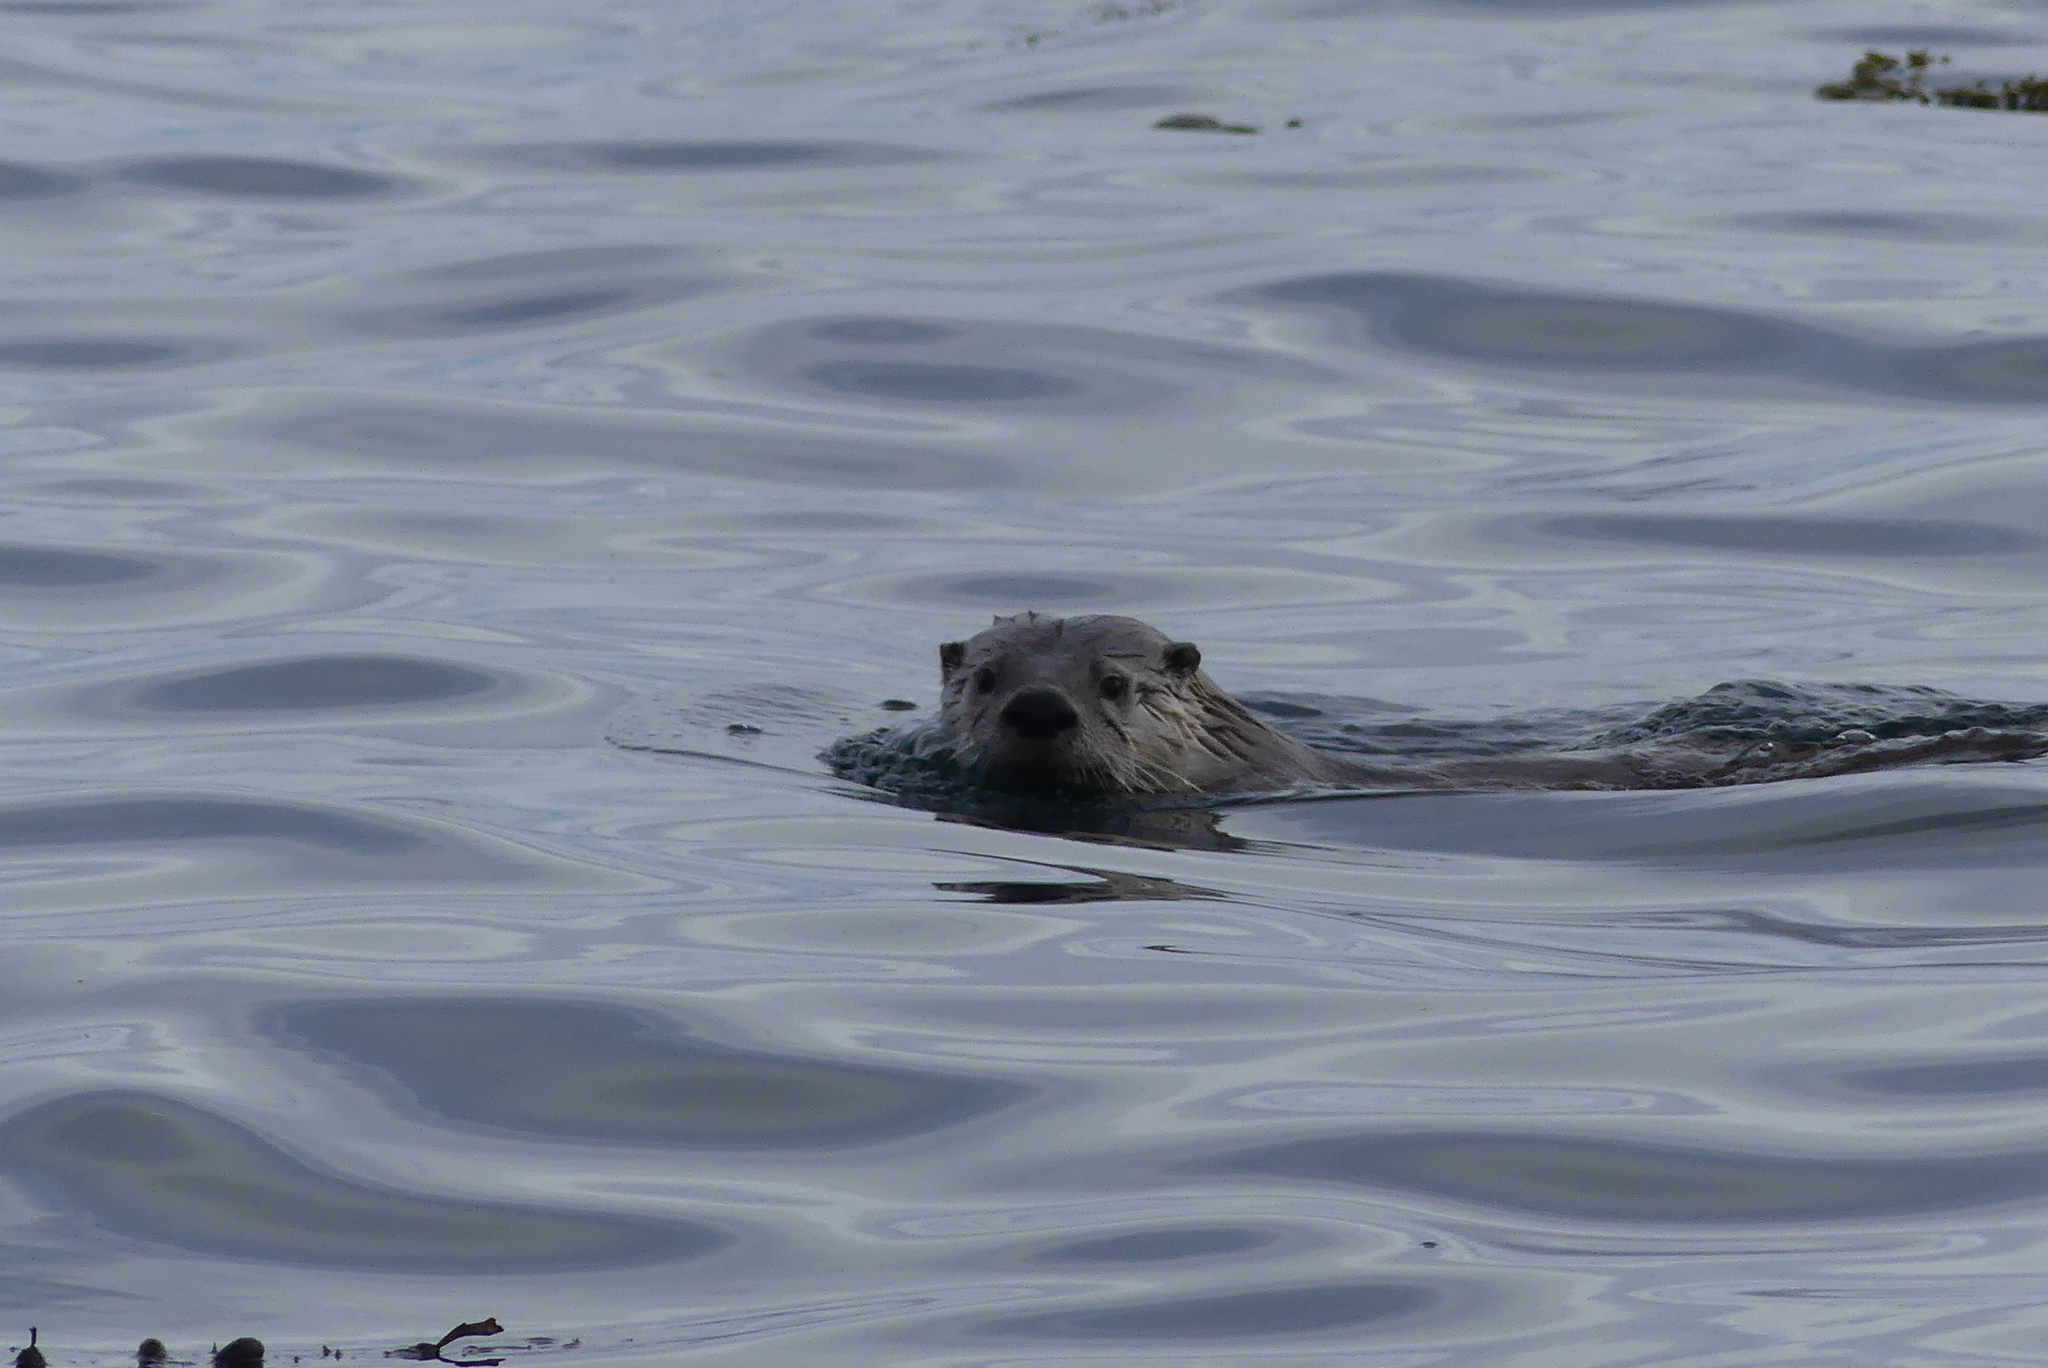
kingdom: Animalia
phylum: Chordata
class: Mammalia
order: Carnivora
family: Mustelidae
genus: Lontra
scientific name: Lontra canadensis
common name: North american river otter
